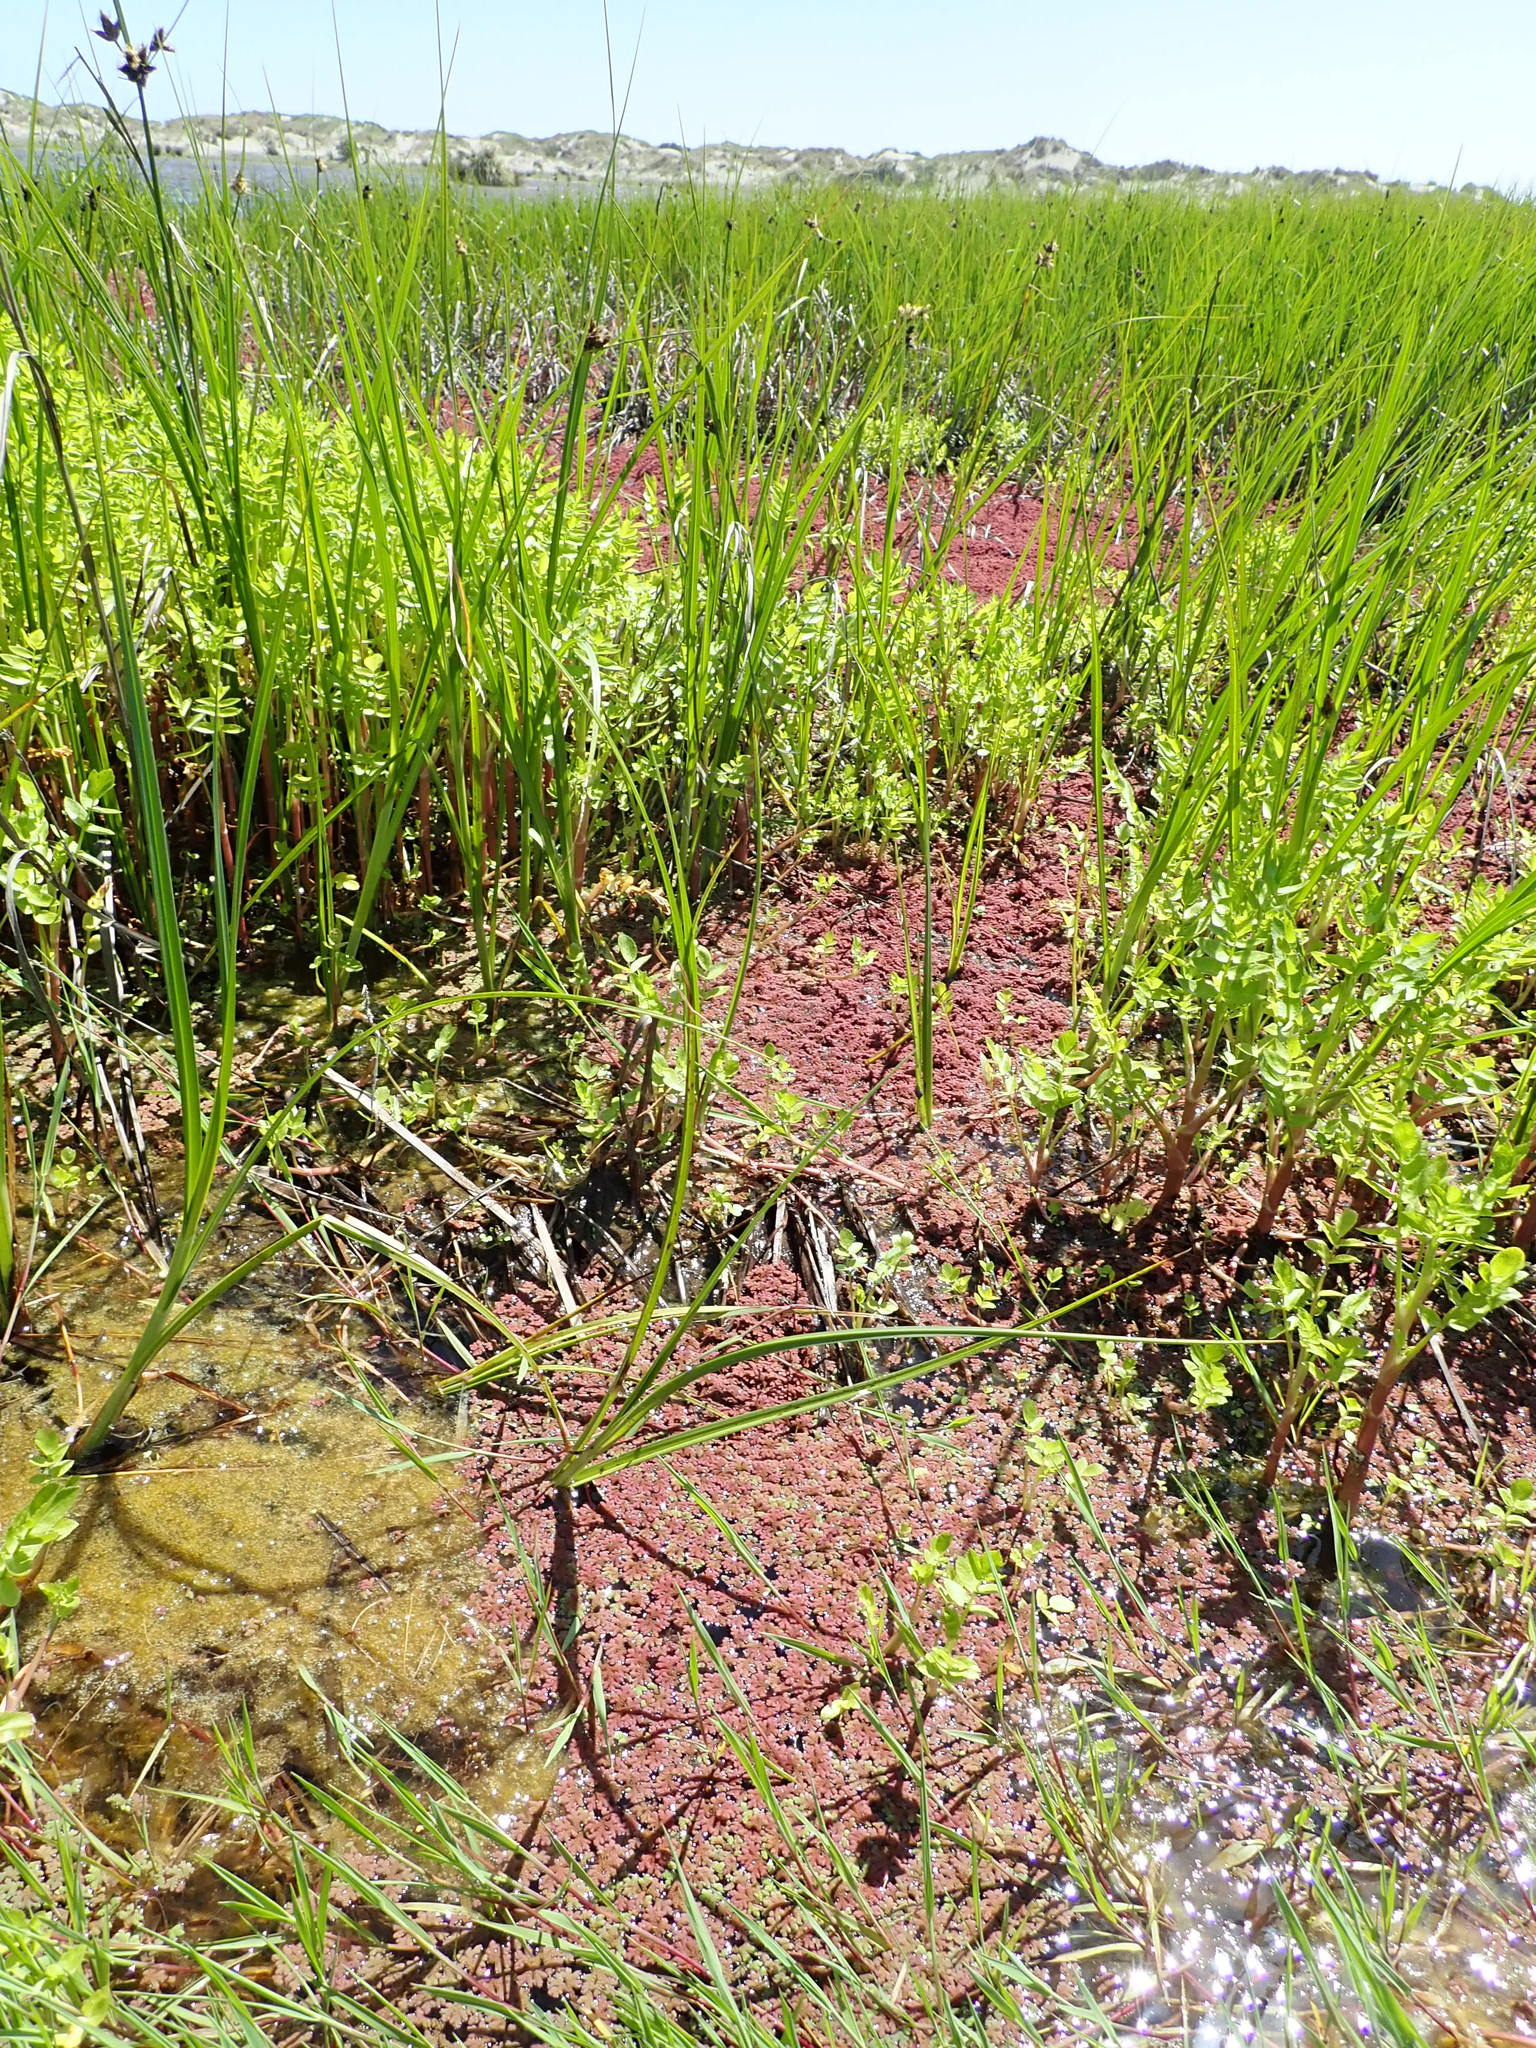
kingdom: Plantae
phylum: Tracheophyta
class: Polypodiopsida
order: Salviniales
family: Salviniaceae
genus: Azolla
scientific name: Azolla rubra
